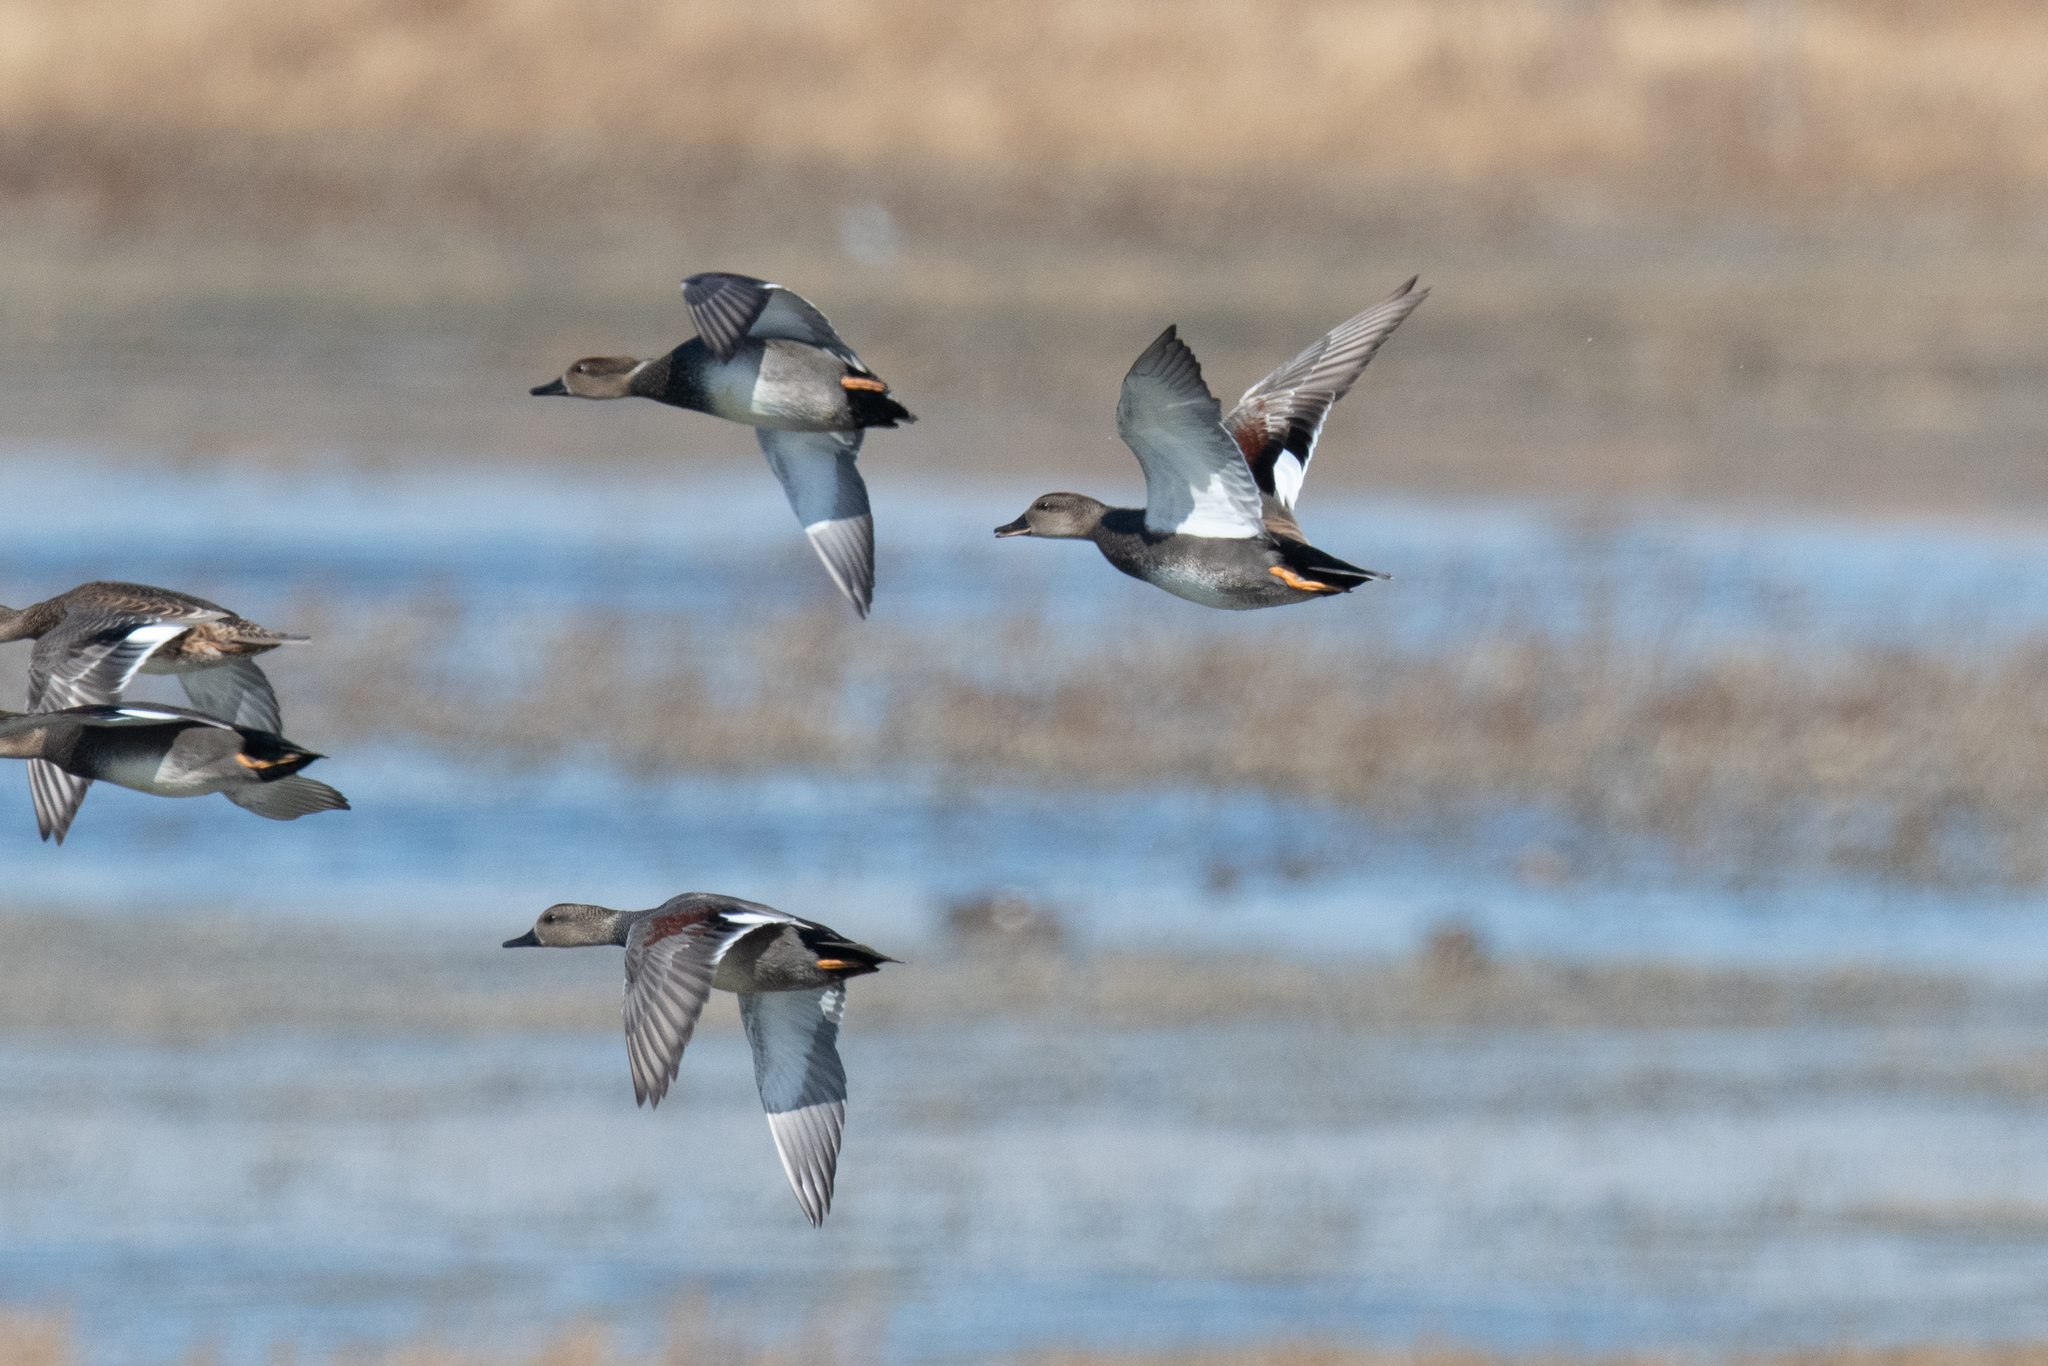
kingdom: Animalia
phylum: Chordata
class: Aves
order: Anseriformes
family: Anatidae
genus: Mareca
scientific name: Mareca strepera
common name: Gadwall
